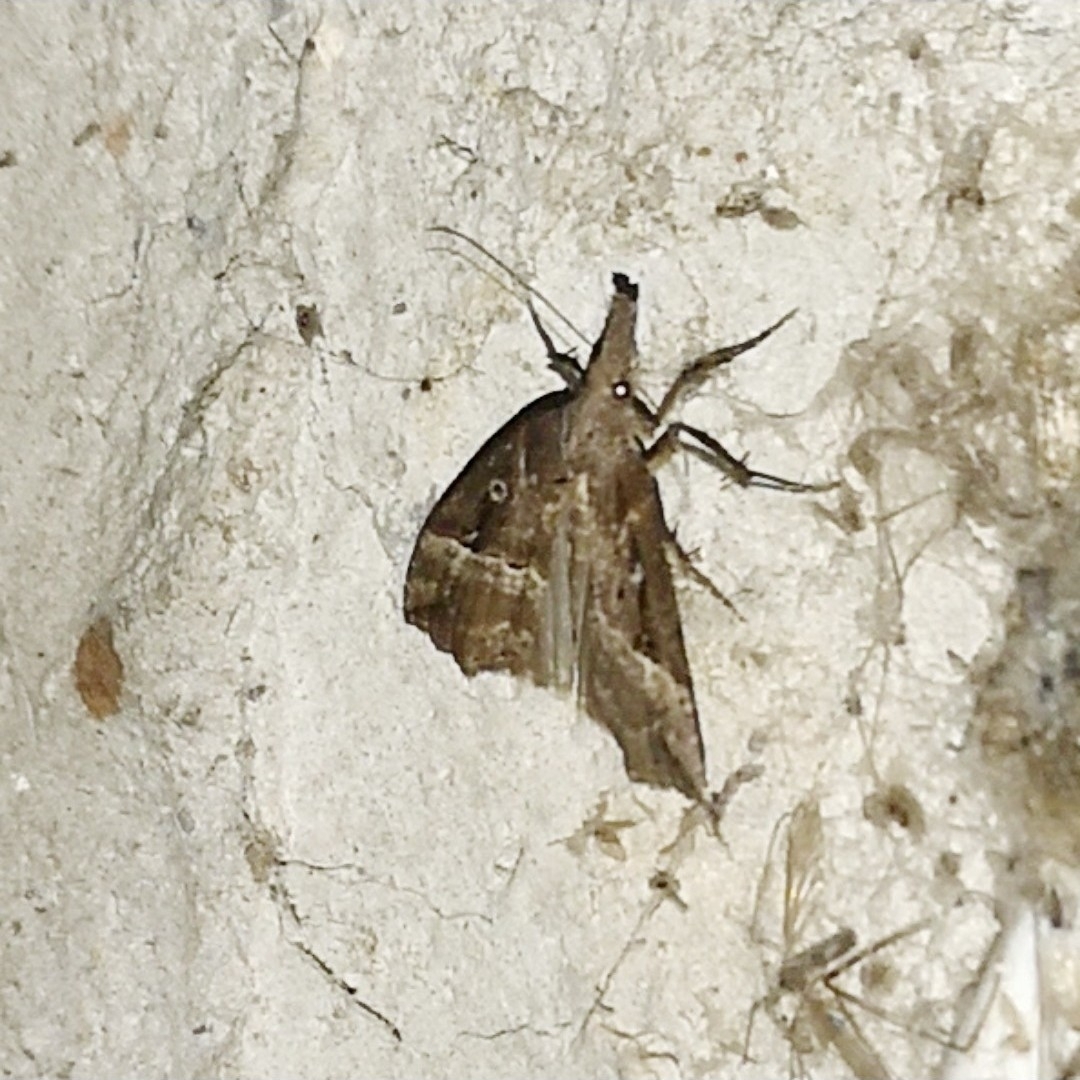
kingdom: Animalia
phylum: Arthropoda
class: Insecta
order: Lepidoptera
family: Erebidae
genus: Hypena
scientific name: Hypena rostralis
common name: Buttoned snout
